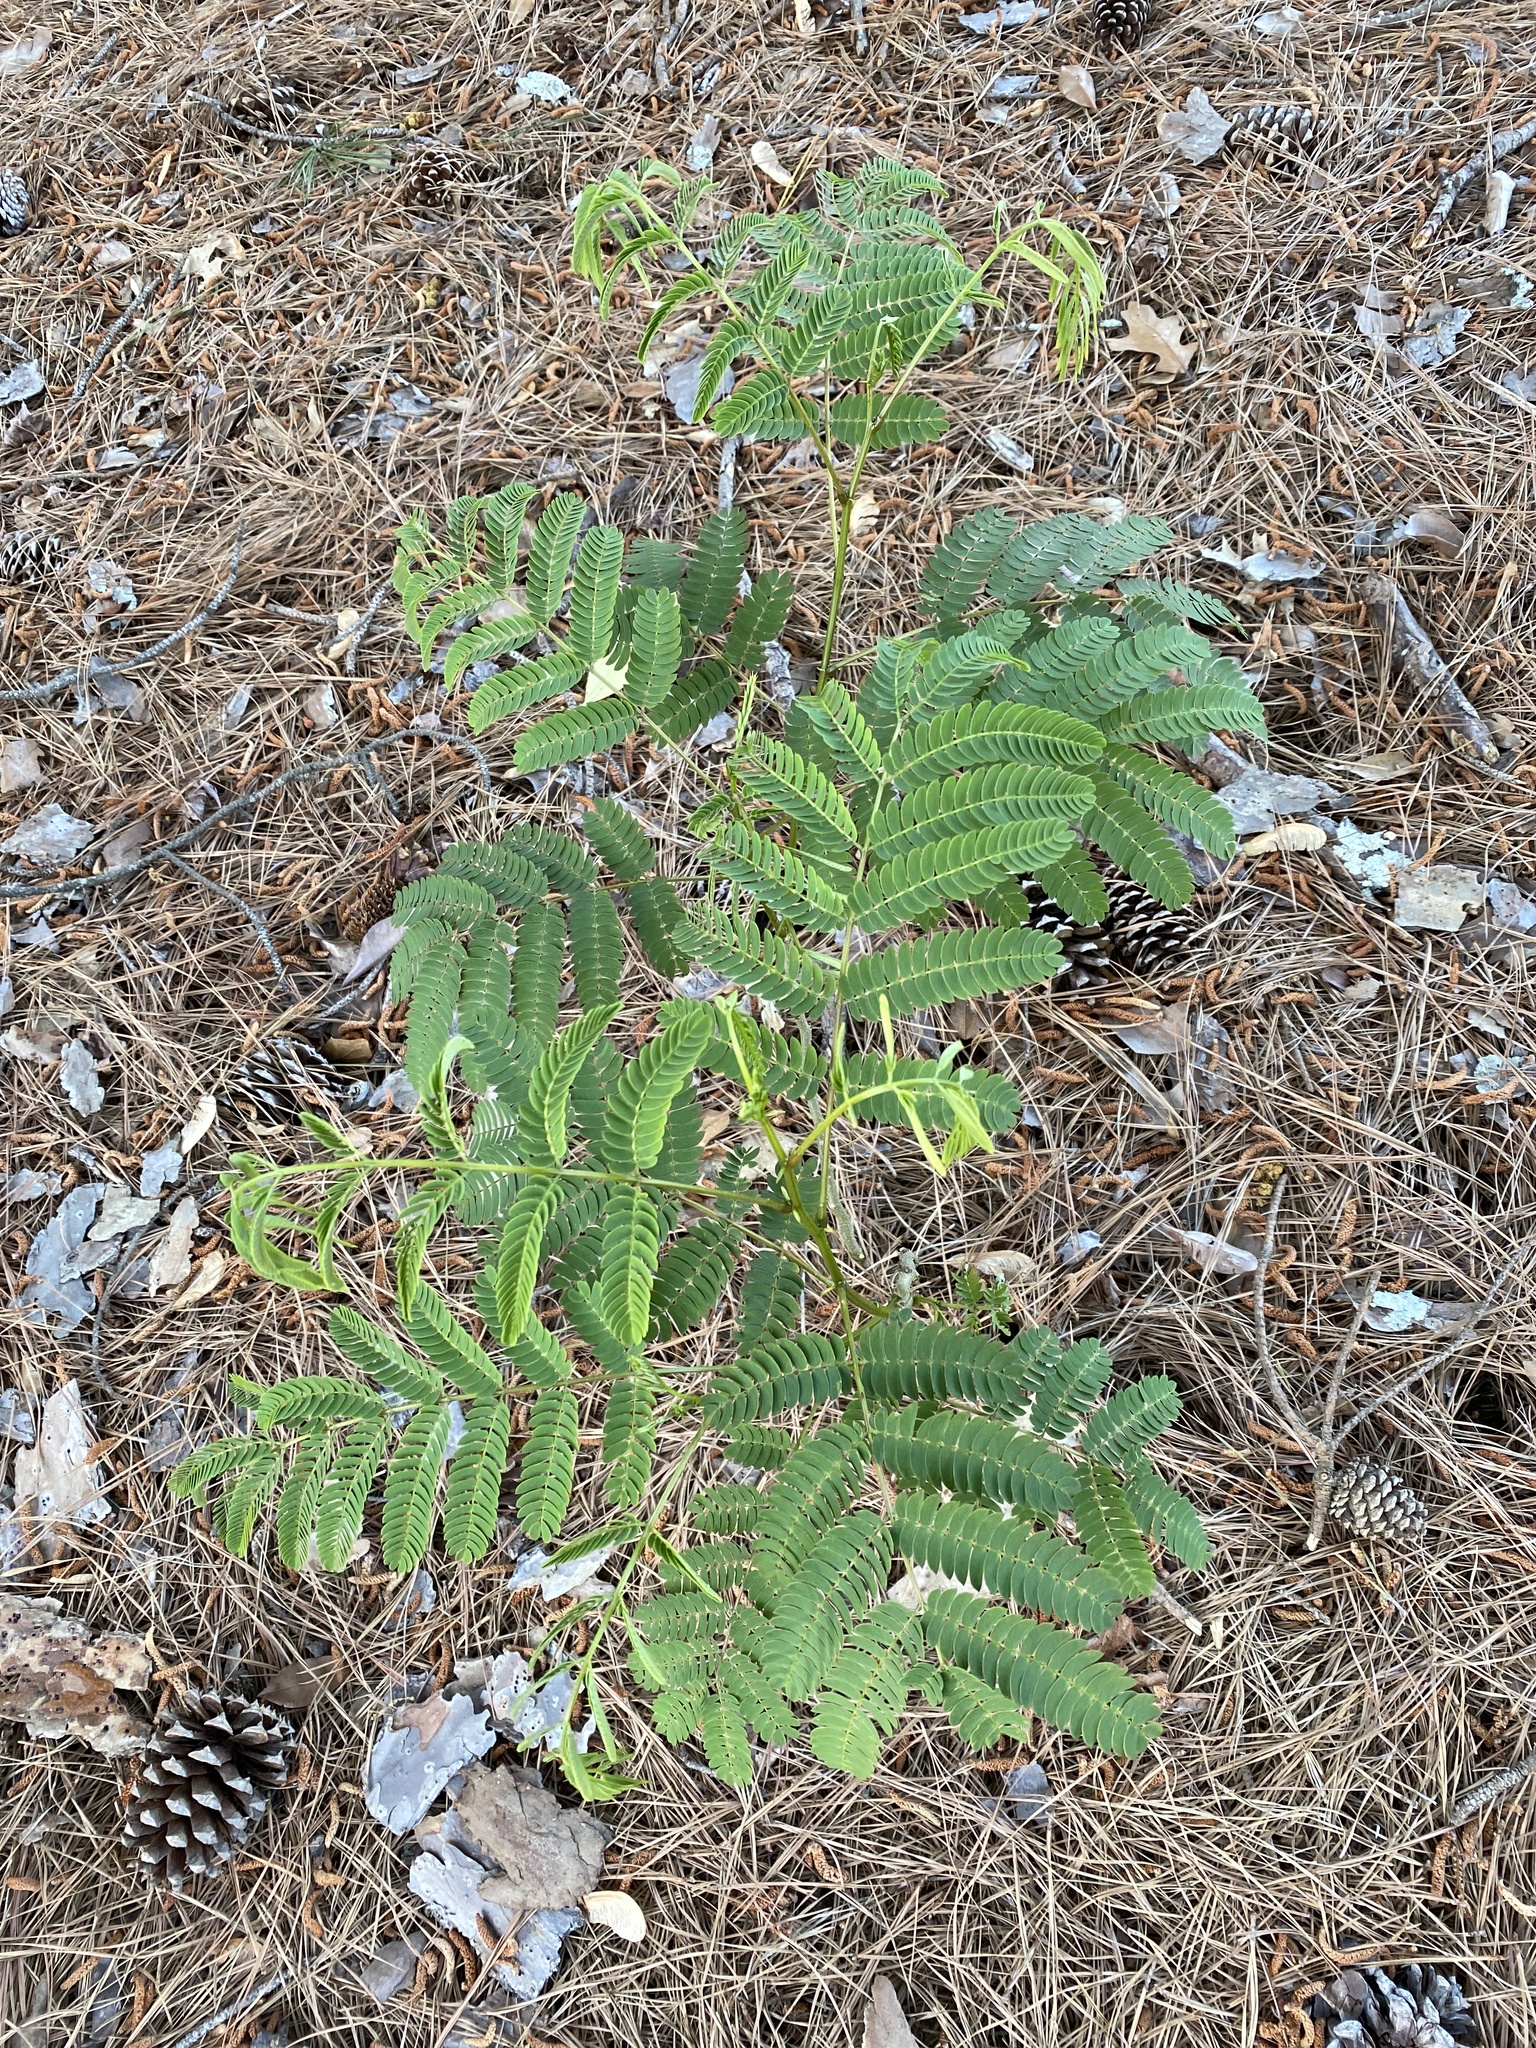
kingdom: Plantae
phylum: Tracheophyta
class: Magnoliopsida
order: Fabales
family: Fabaceae
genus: Albizia
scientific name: Albizia julibrissin
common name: Silktree
